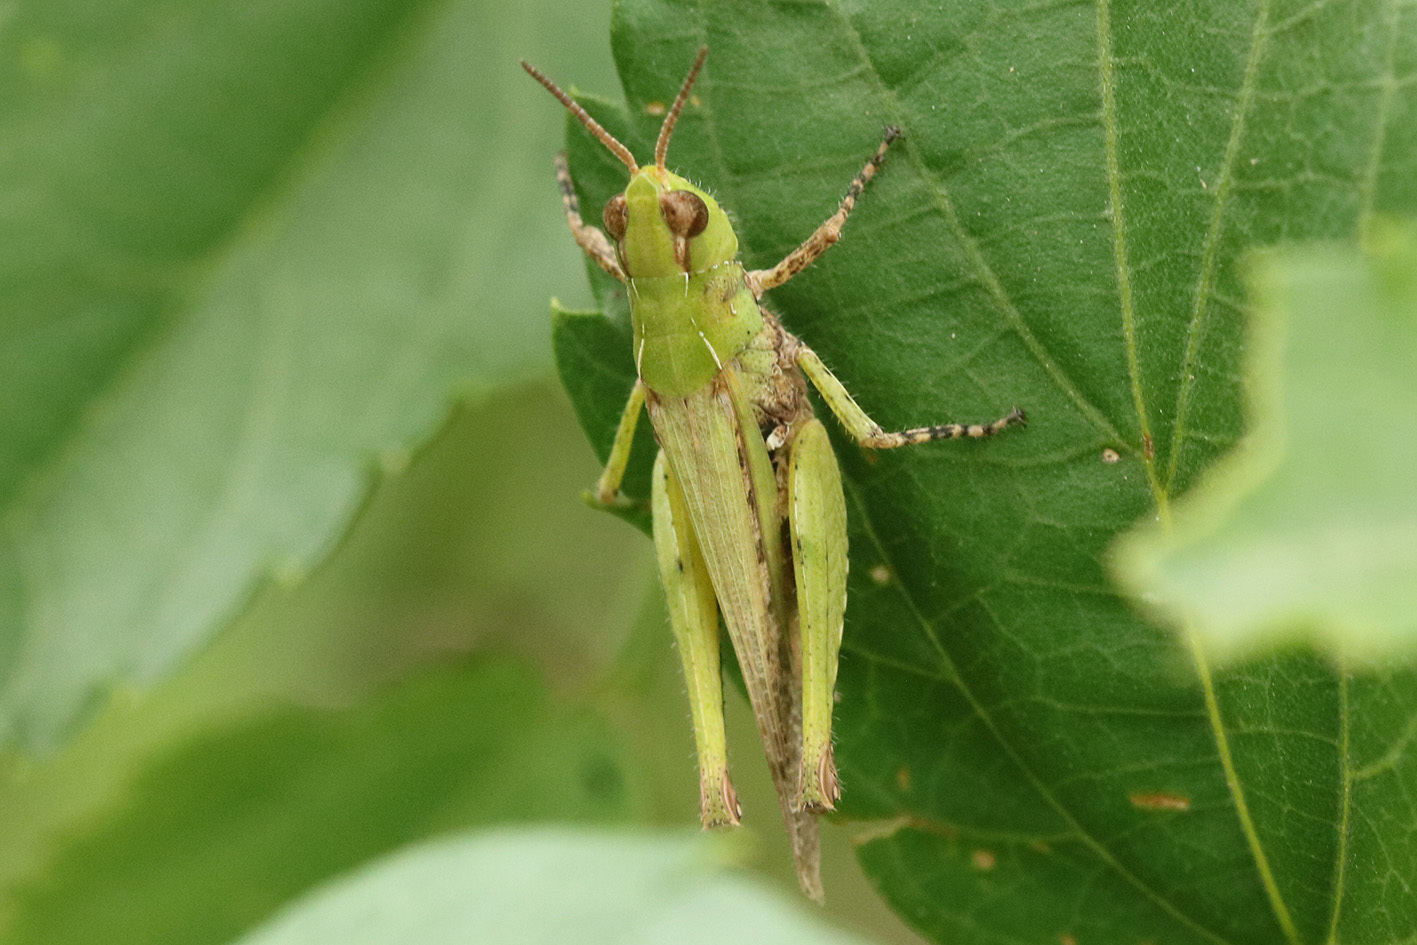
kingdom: Animalia
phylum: Arthropoda
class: Insecta
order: Orthoptera
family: Acrididae
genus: Orphulella
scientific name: Orphulella punctata
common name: Slant-faced grasshopper
